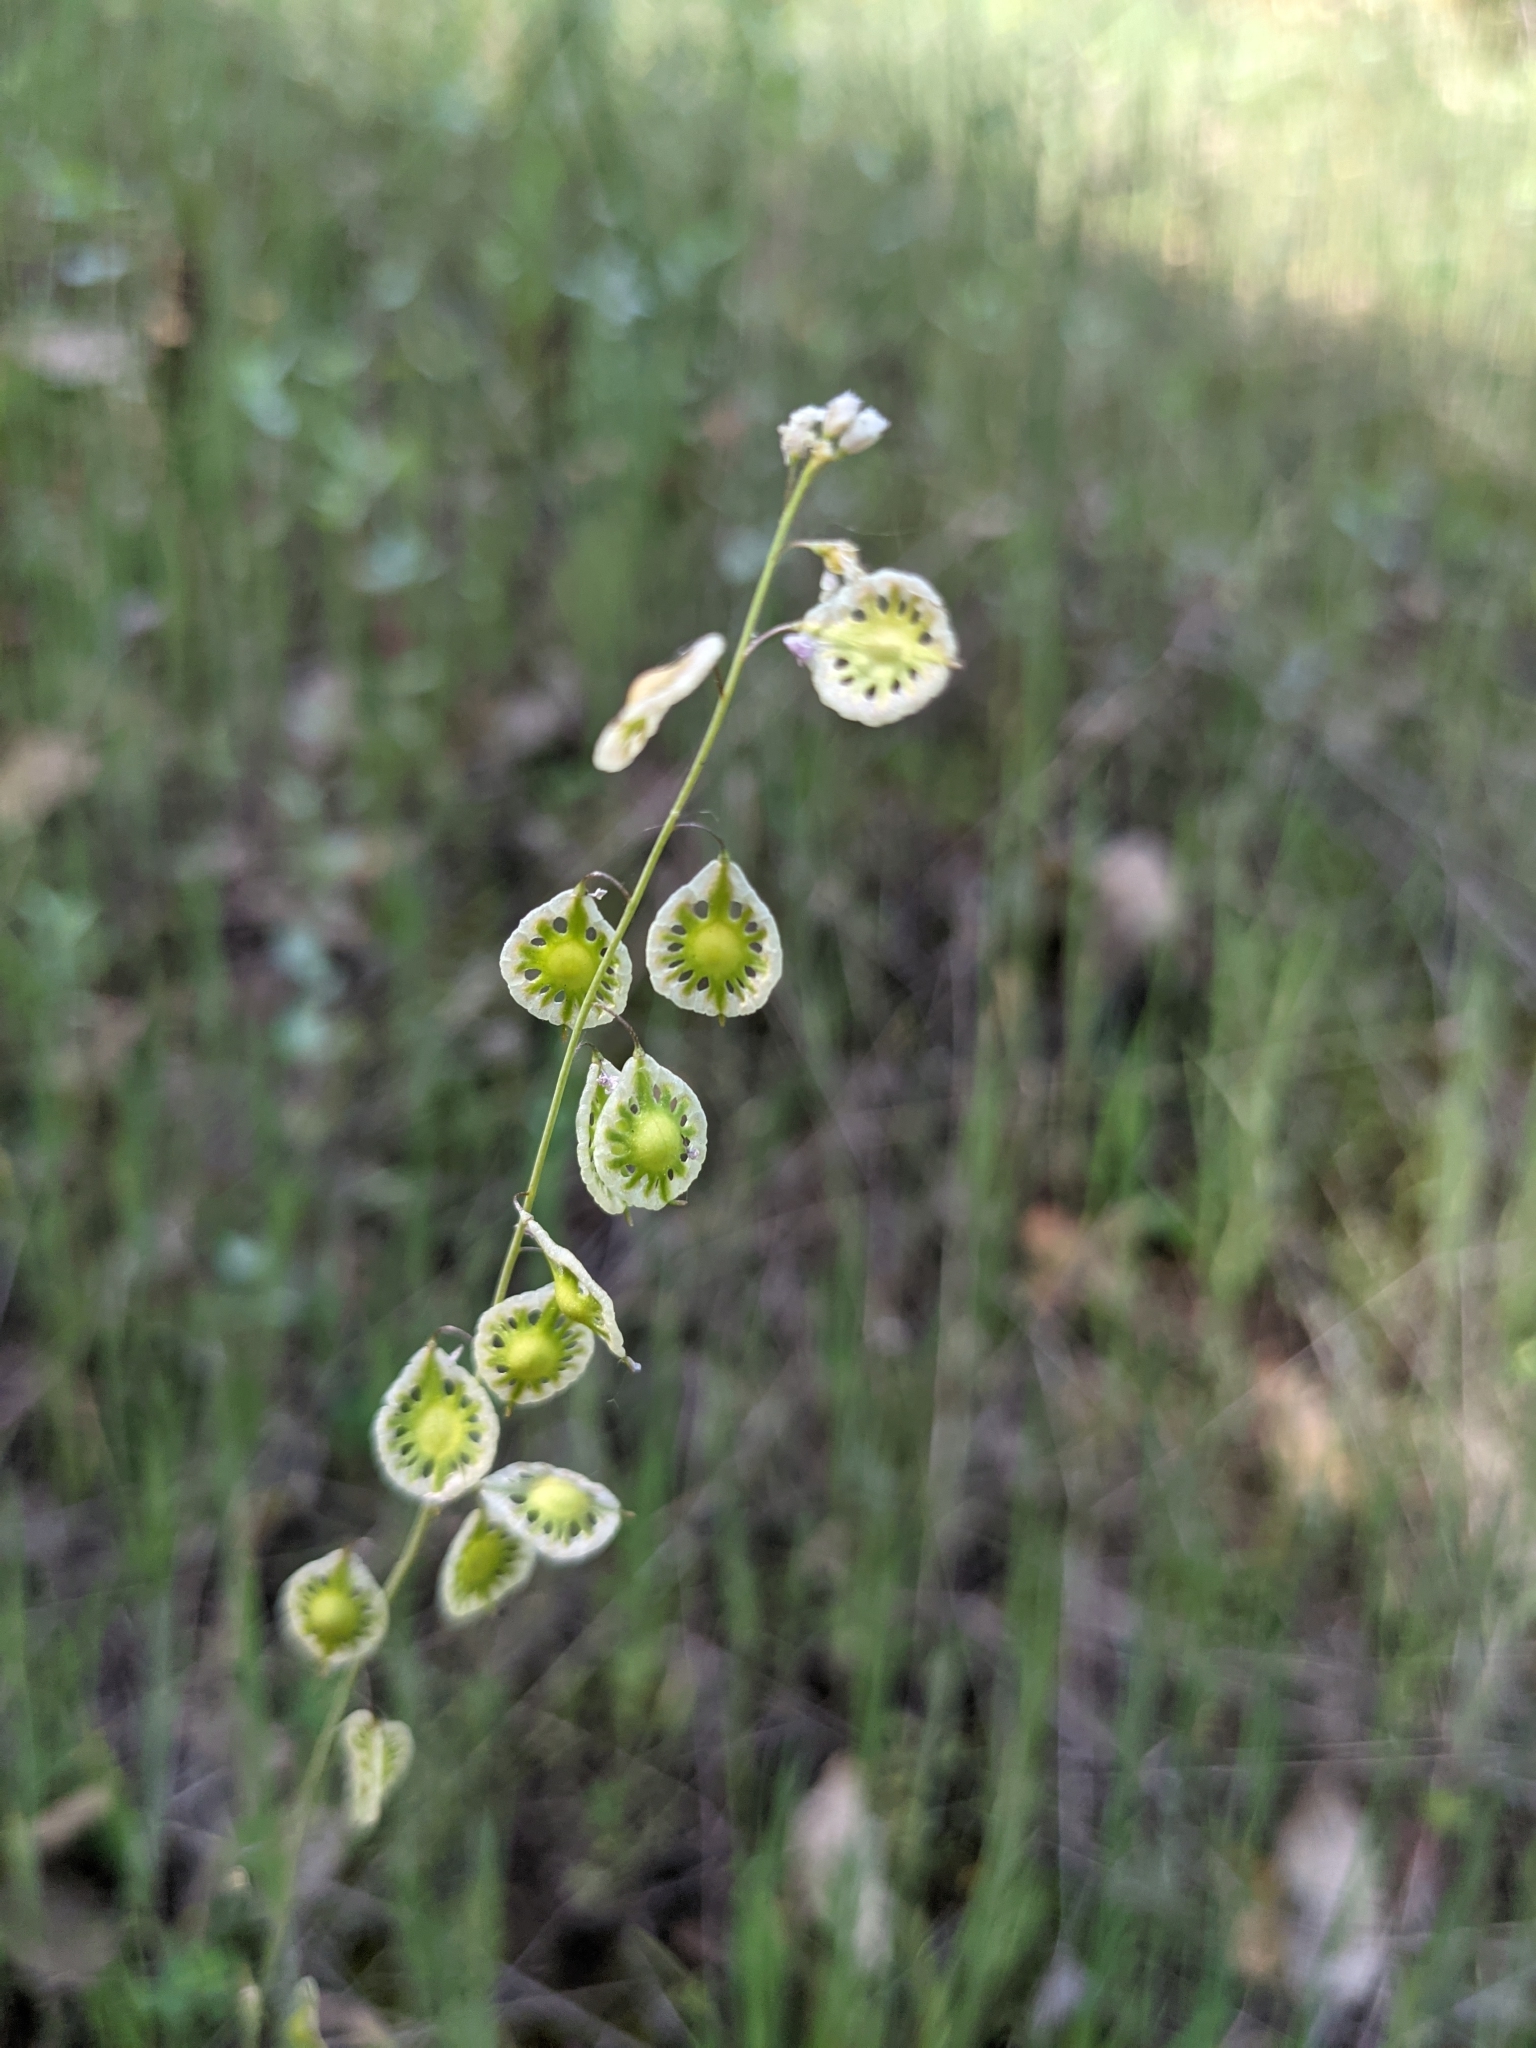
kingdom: Plantae
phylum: Tracheophyta
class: Magnoliopsida
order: Brassicales
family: Brassicaceae
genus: Thysanocarpus
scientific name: Thysanocarpus curvipes
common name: Sand fringepod
